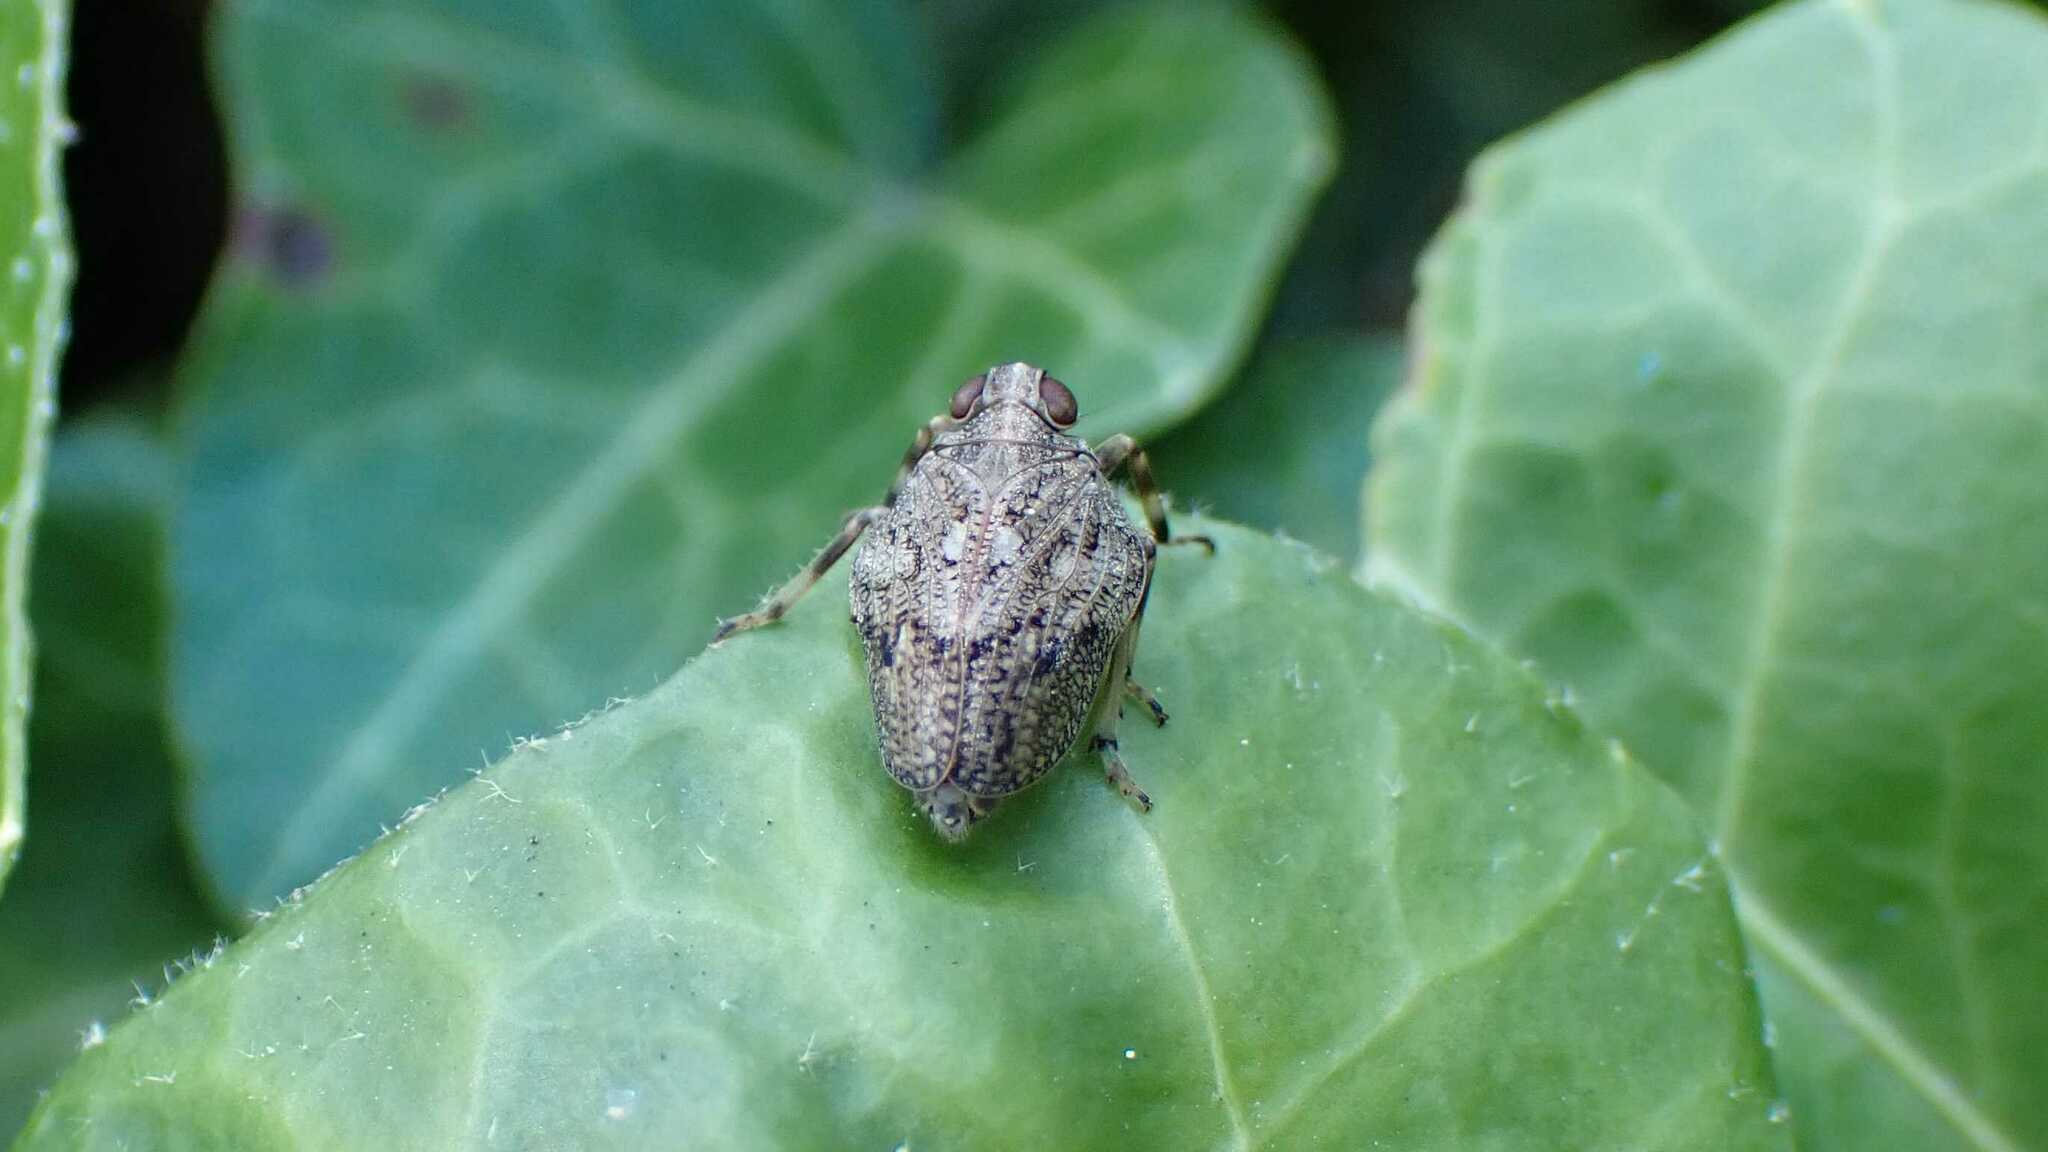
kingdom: Animalia
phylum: Arthropoda
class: Insecta
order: Hemiptera
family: Issidae
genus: Issus
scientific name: Issus coleoptratus
